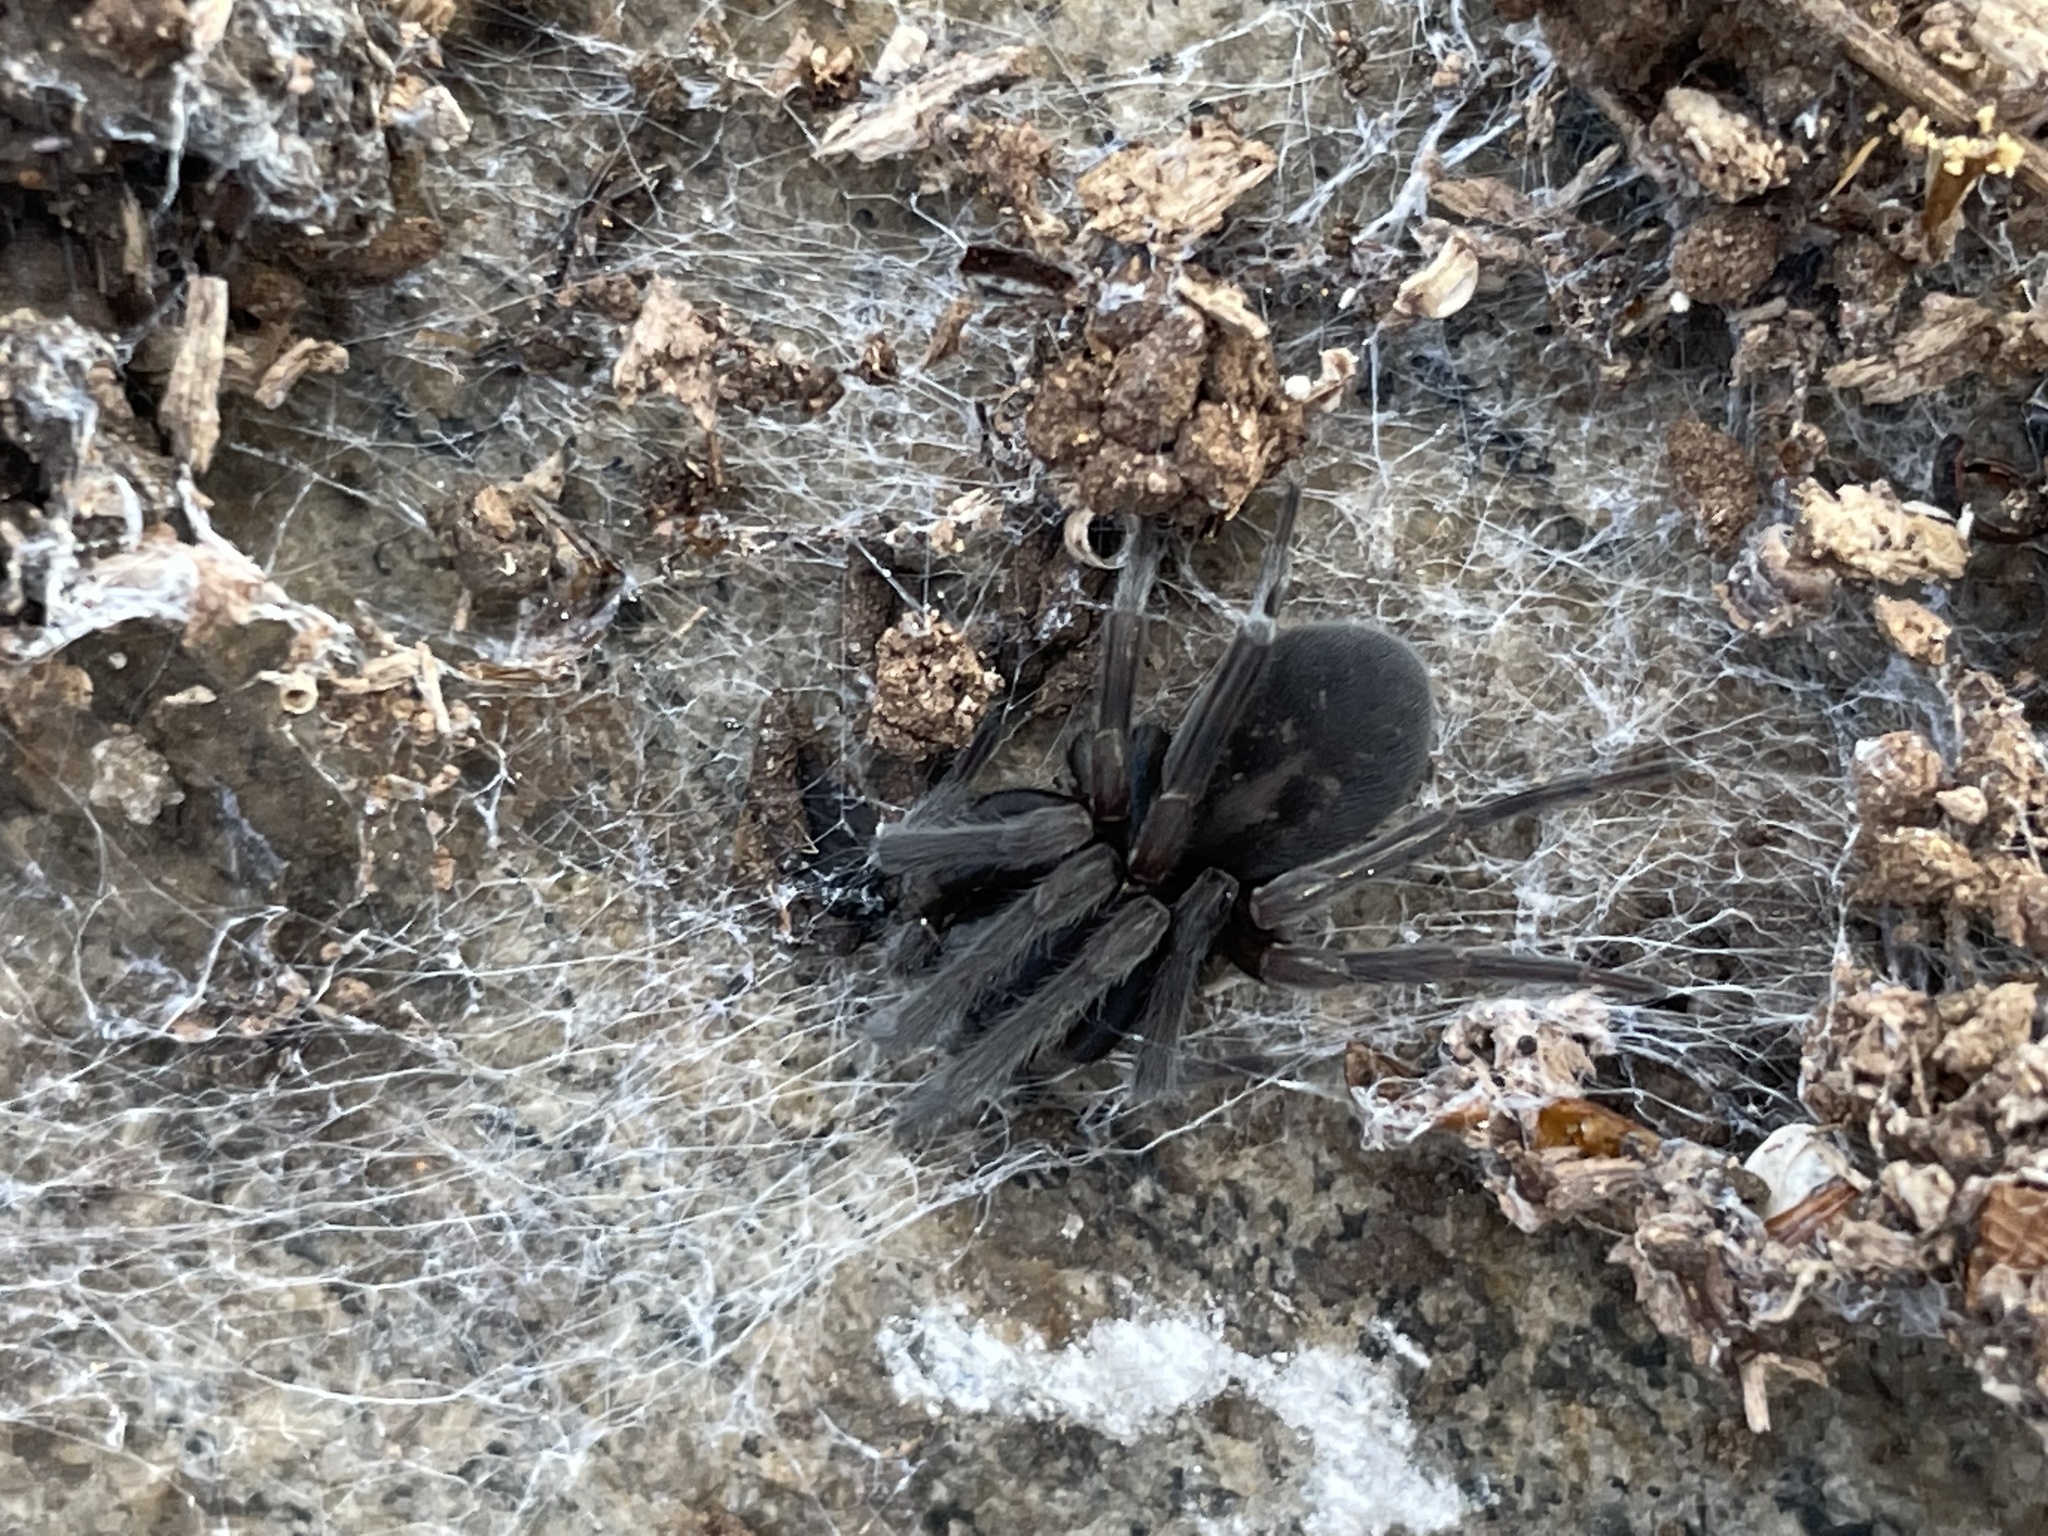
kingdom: Animalia
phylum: Arthropoda
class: Arachnida
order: Araneae
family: Amaurobiidae
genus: Amaurobius
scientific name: Amaurobius ferox
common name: Black laceweaver
